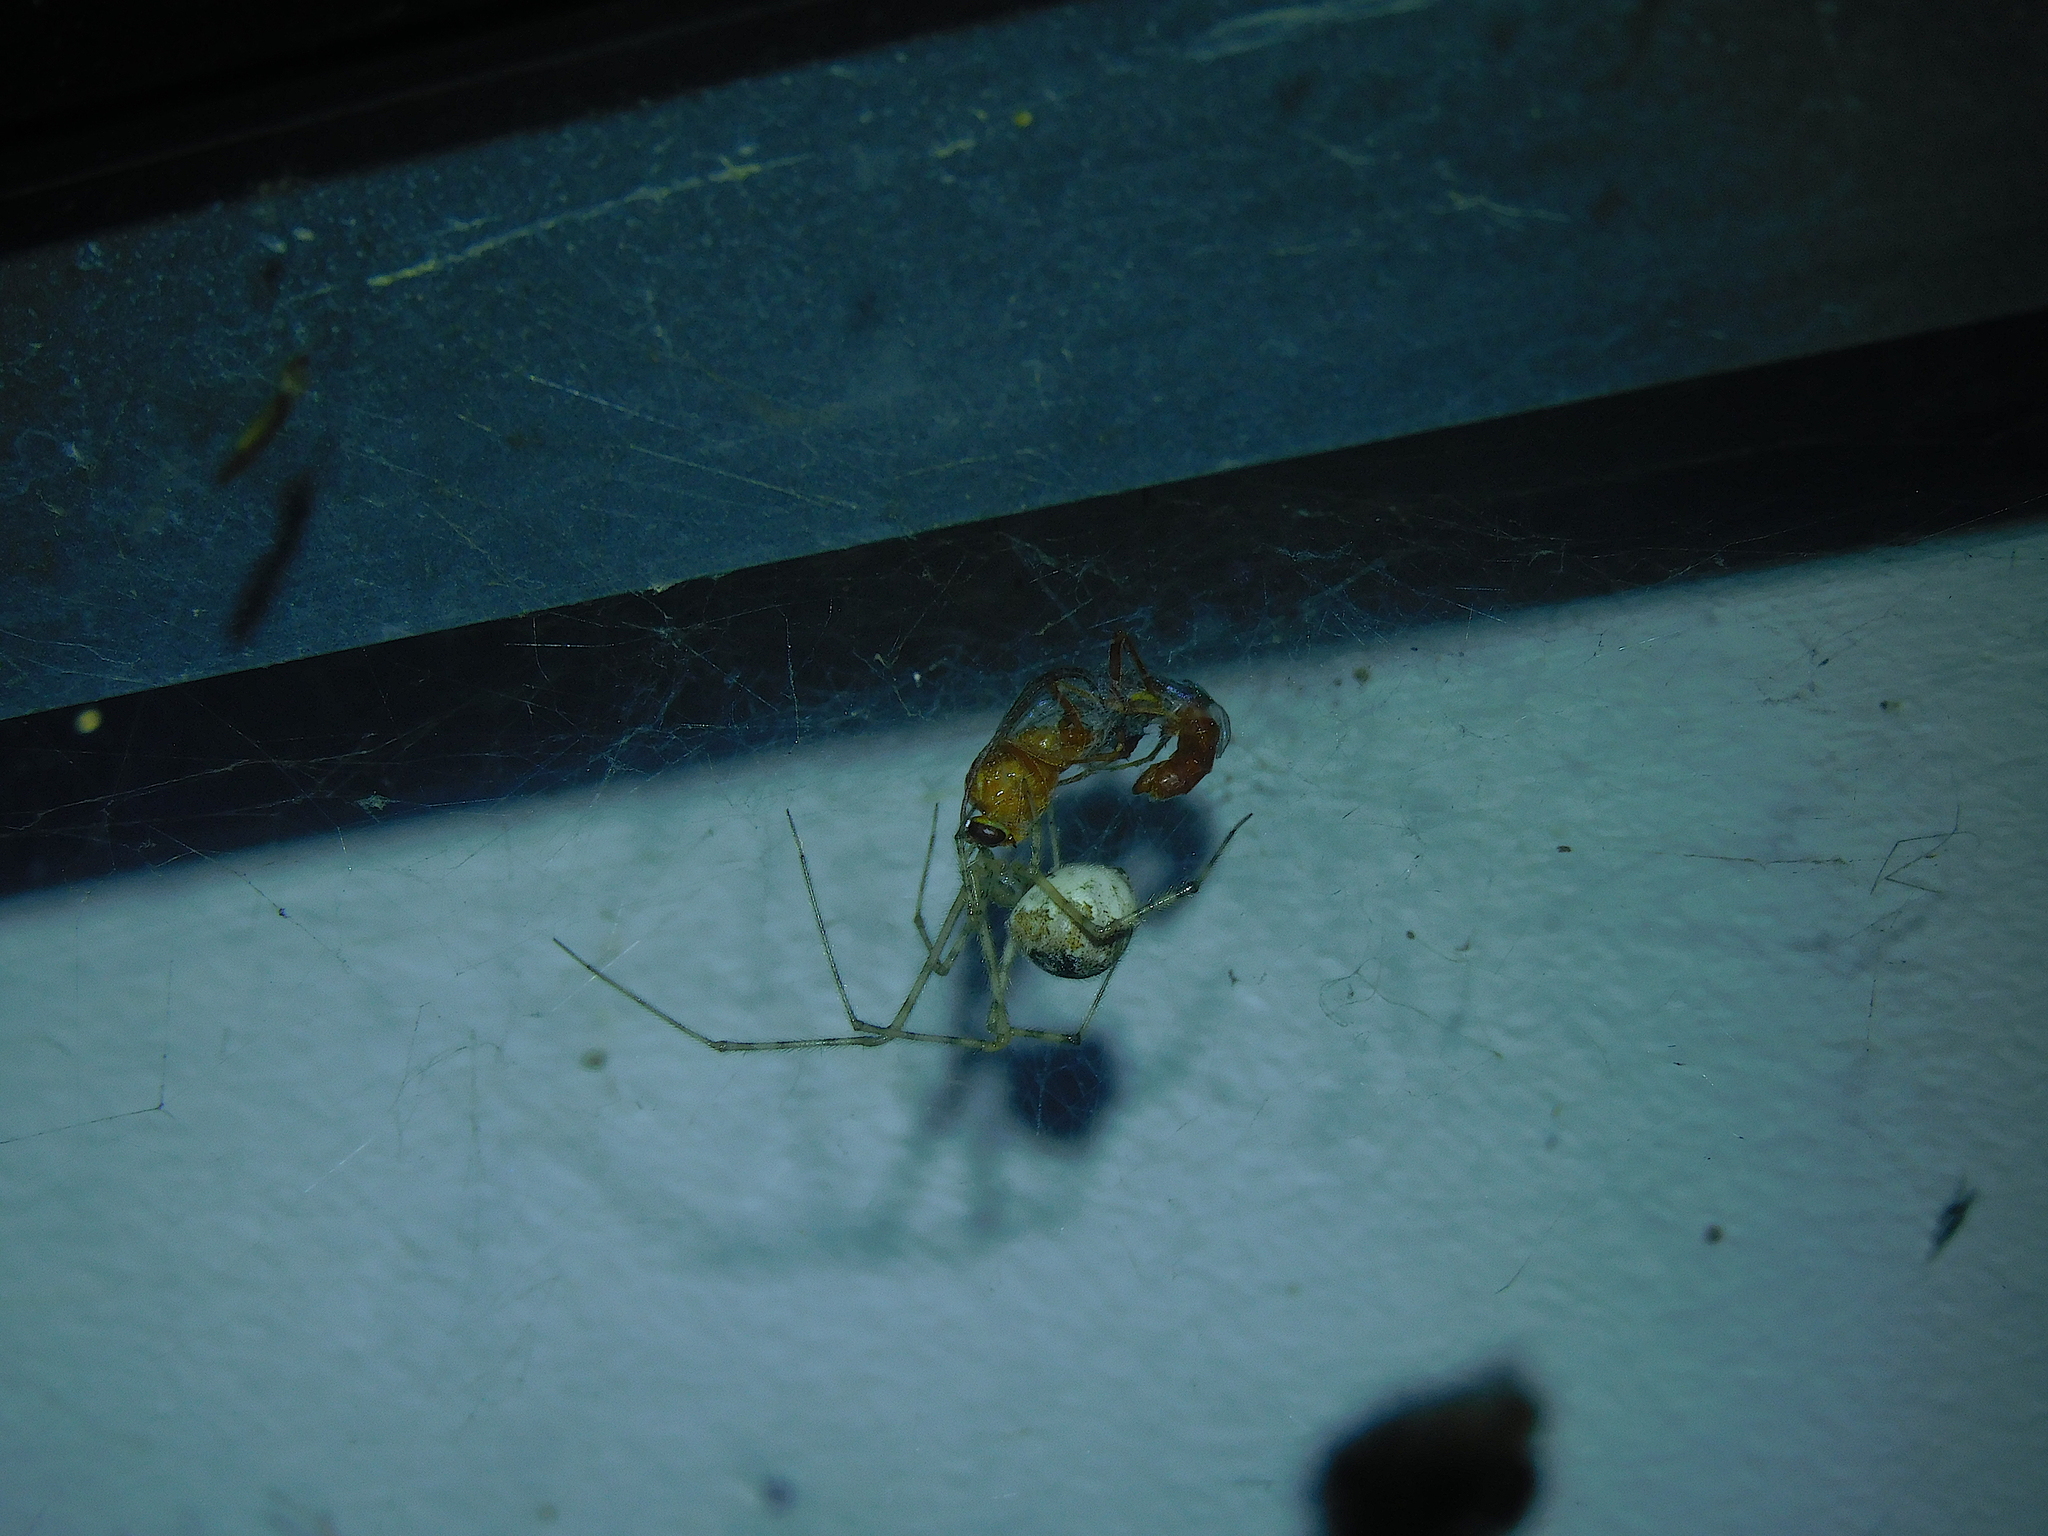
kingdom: Animalia
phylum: Arthropoda
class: Arachnida
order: Araneae
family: Theridiidae
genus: Cryptachaea
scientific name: Cryptachaea gigantipes
